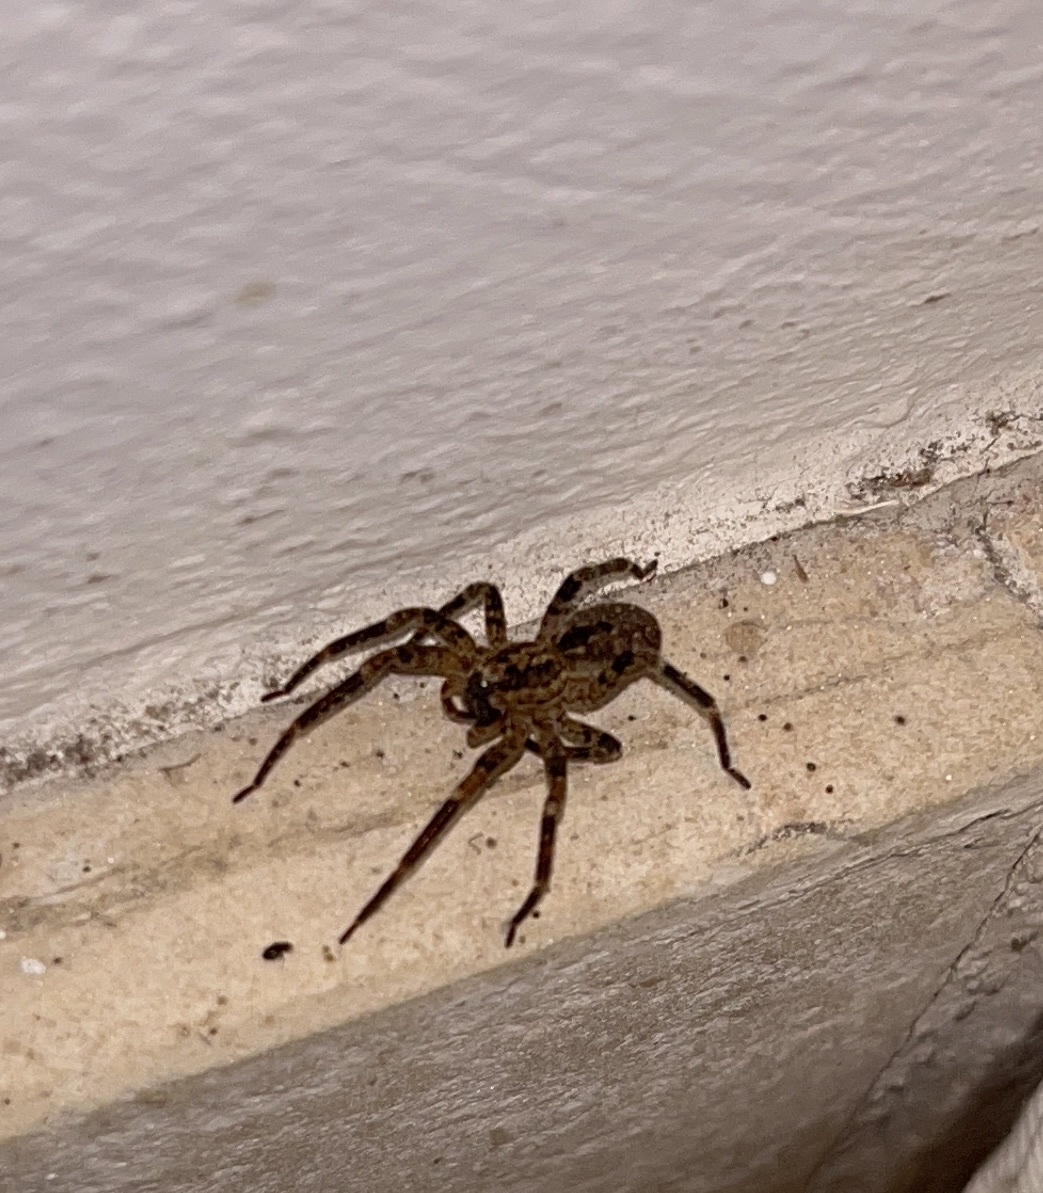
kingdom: Animalia
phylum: Arthropoda
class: Arachnida
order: Araneae
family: Zoropsidae
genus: Zoropsis
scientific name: Zoropsis spinimana
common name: Zoropsid spider
